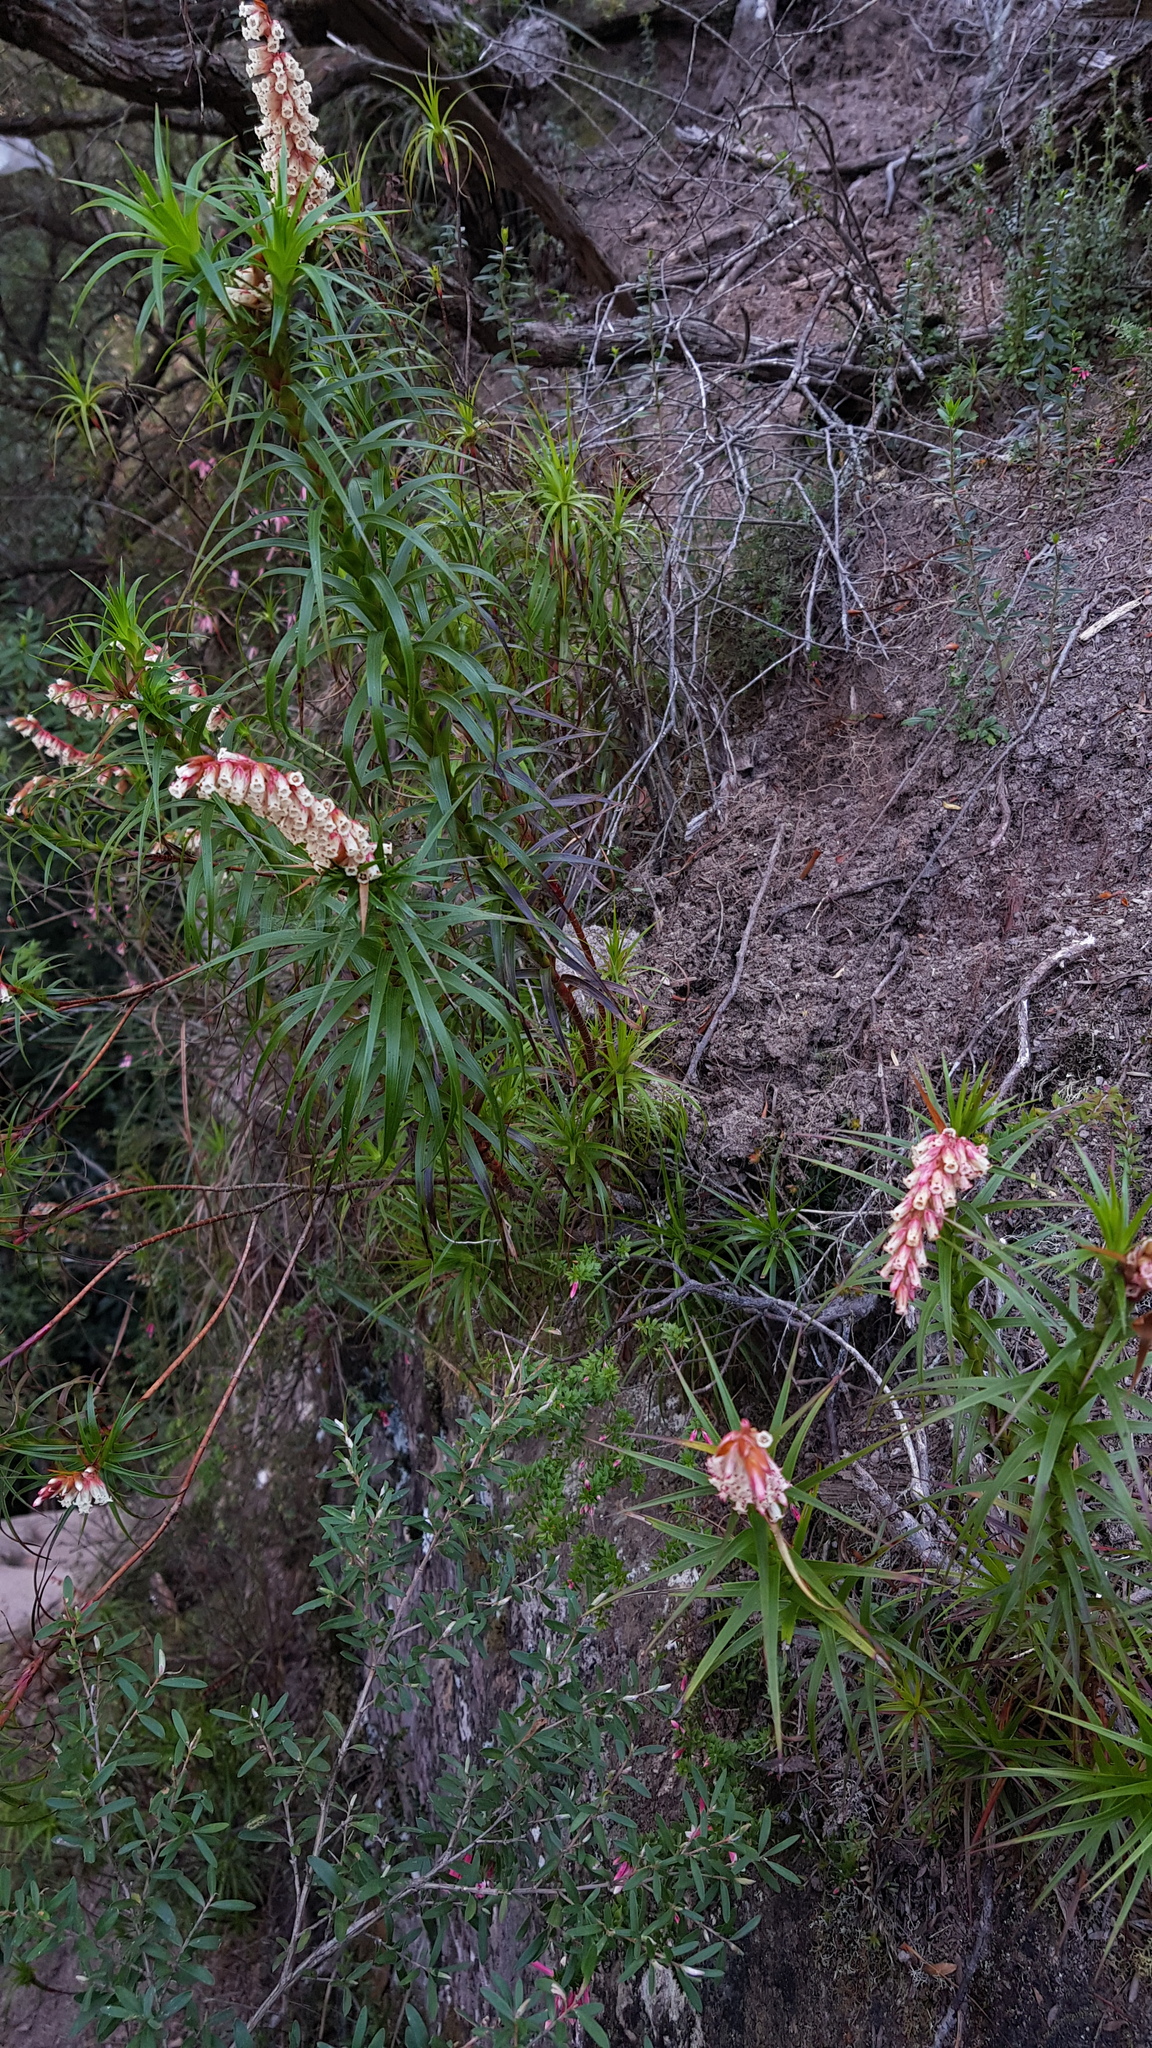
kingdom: Plantae
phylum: Tracheophyta
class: Magnoliopsida
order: Ericales
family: Ericaceae
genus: Dracophyllum
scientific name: Dracophyllum secundum
